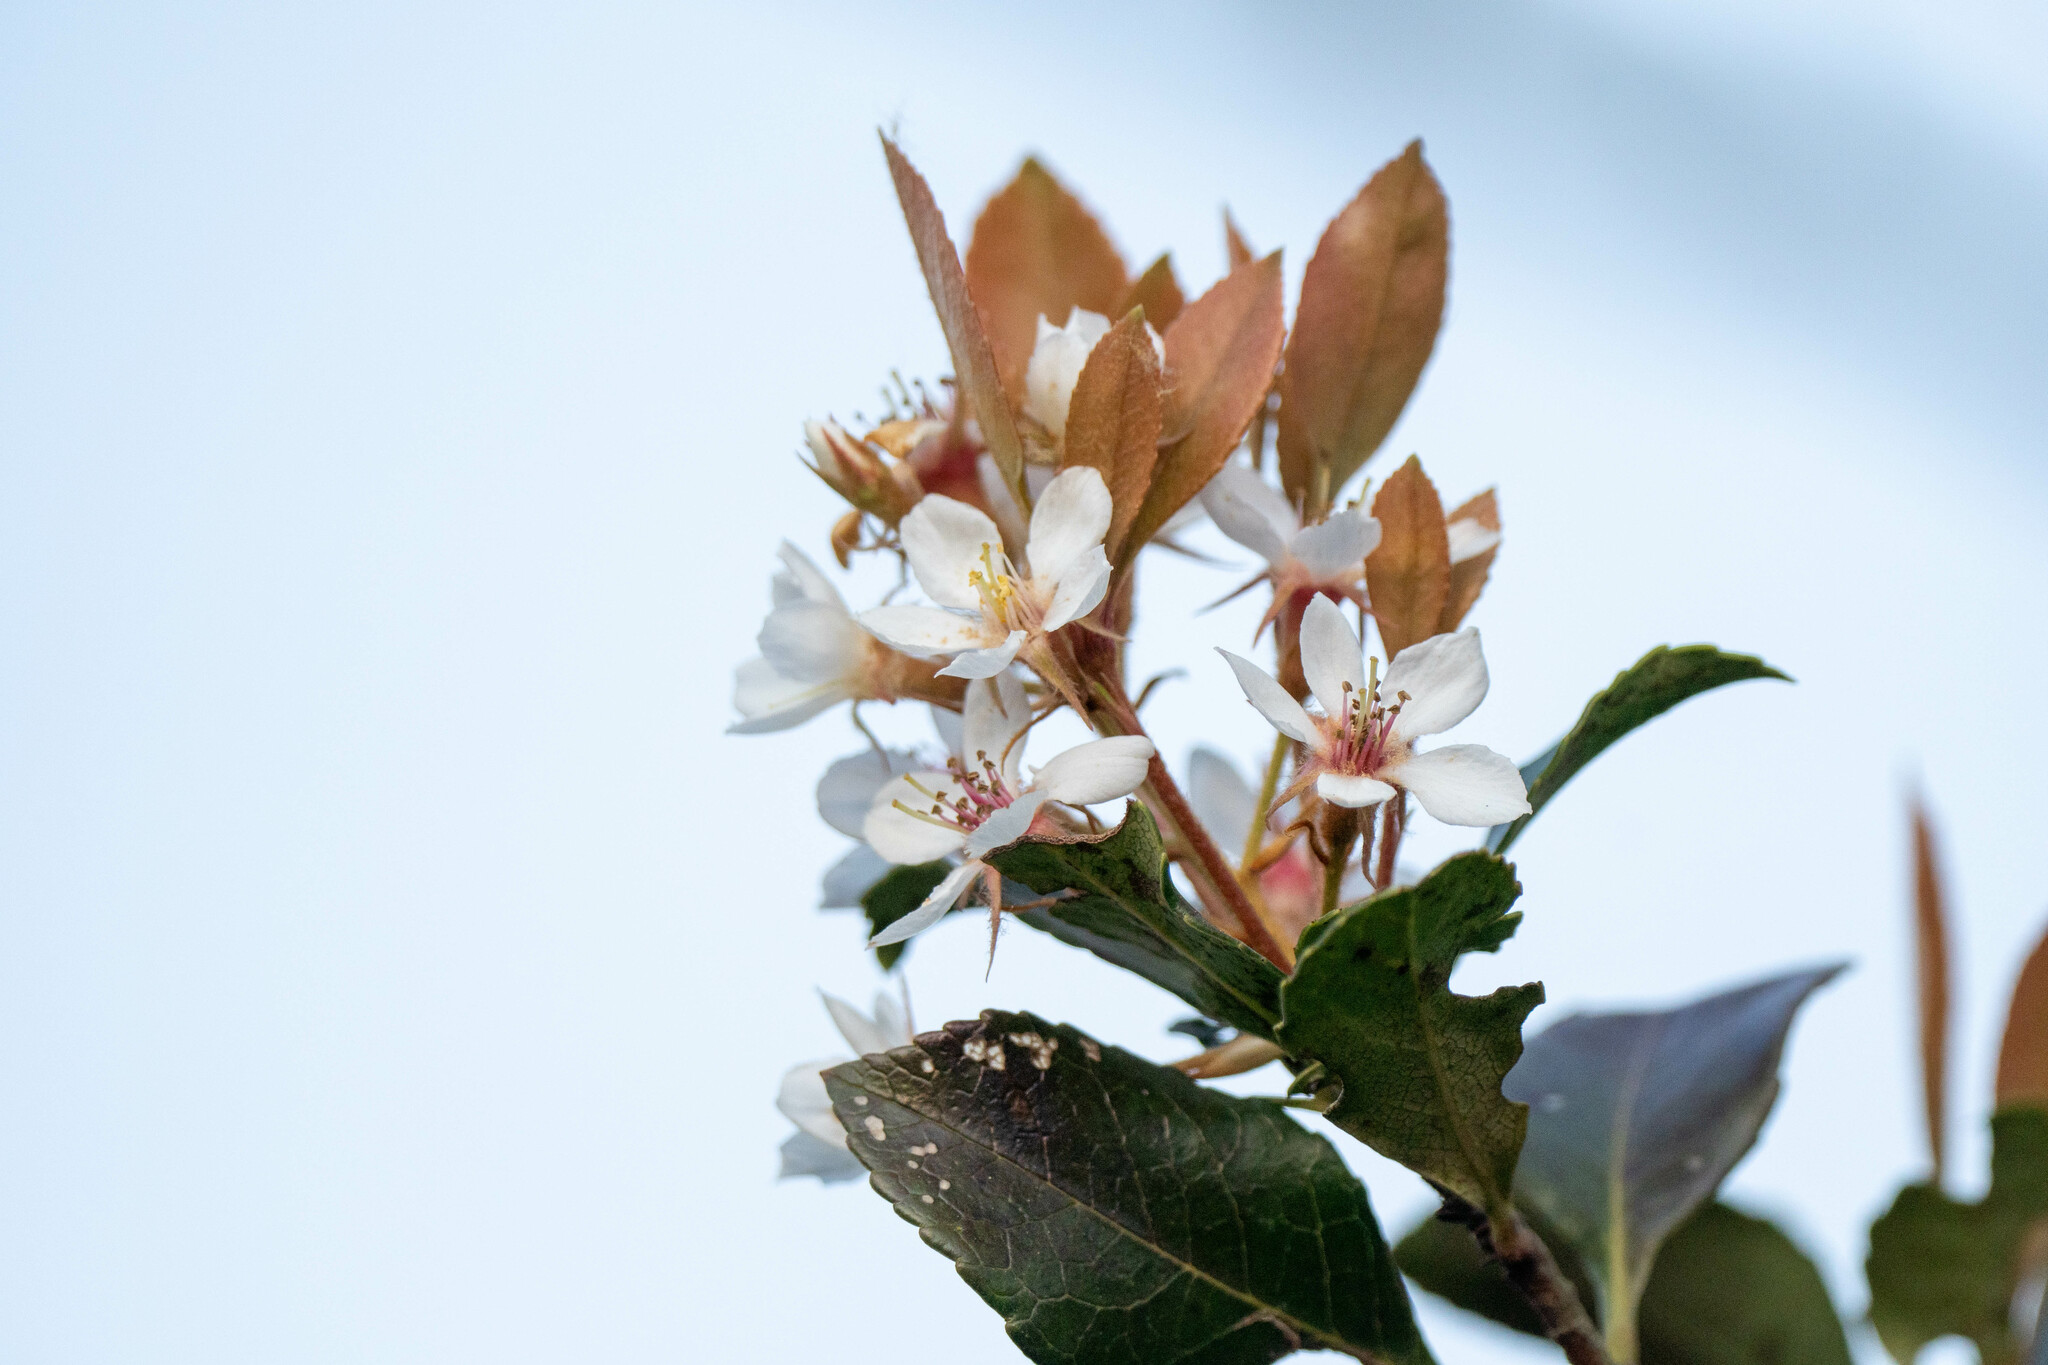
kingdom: Plantae
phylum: Tracheophyta
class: Magnoliopsida
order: Rosales
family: Rosaceae
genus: Rhaphiolepis
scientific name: Rhaphiolepis indica
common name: India-hawthorn
